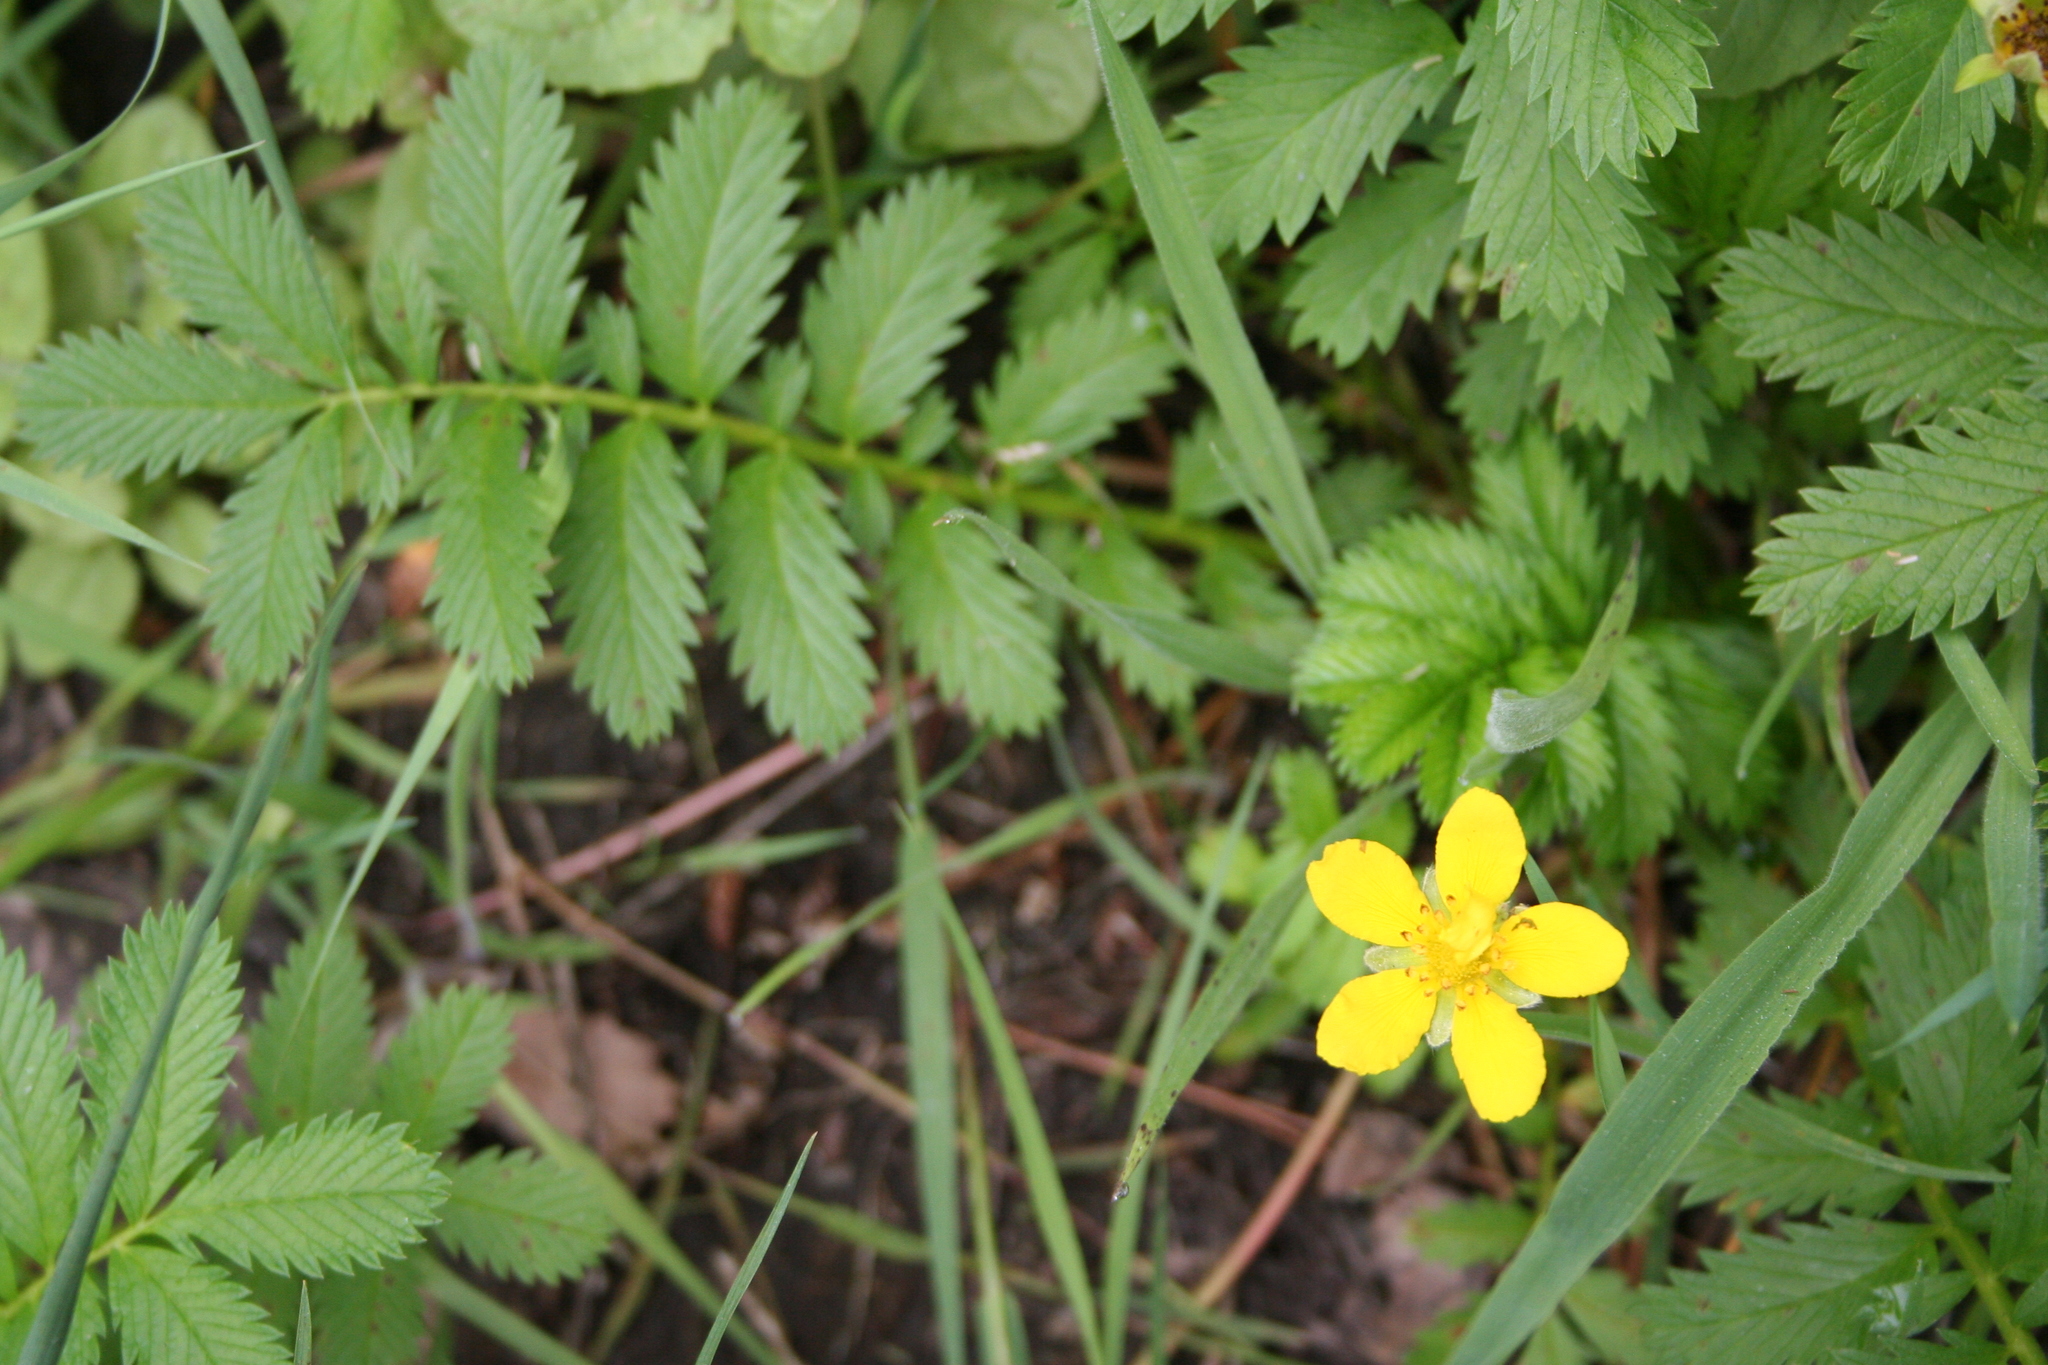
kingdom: Plantae
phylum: Tracheophyta
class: Magnoliopsida
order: Rosales
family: Rosaceae
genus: Argentina
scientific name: Argentina anserina
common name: Common silverweed
